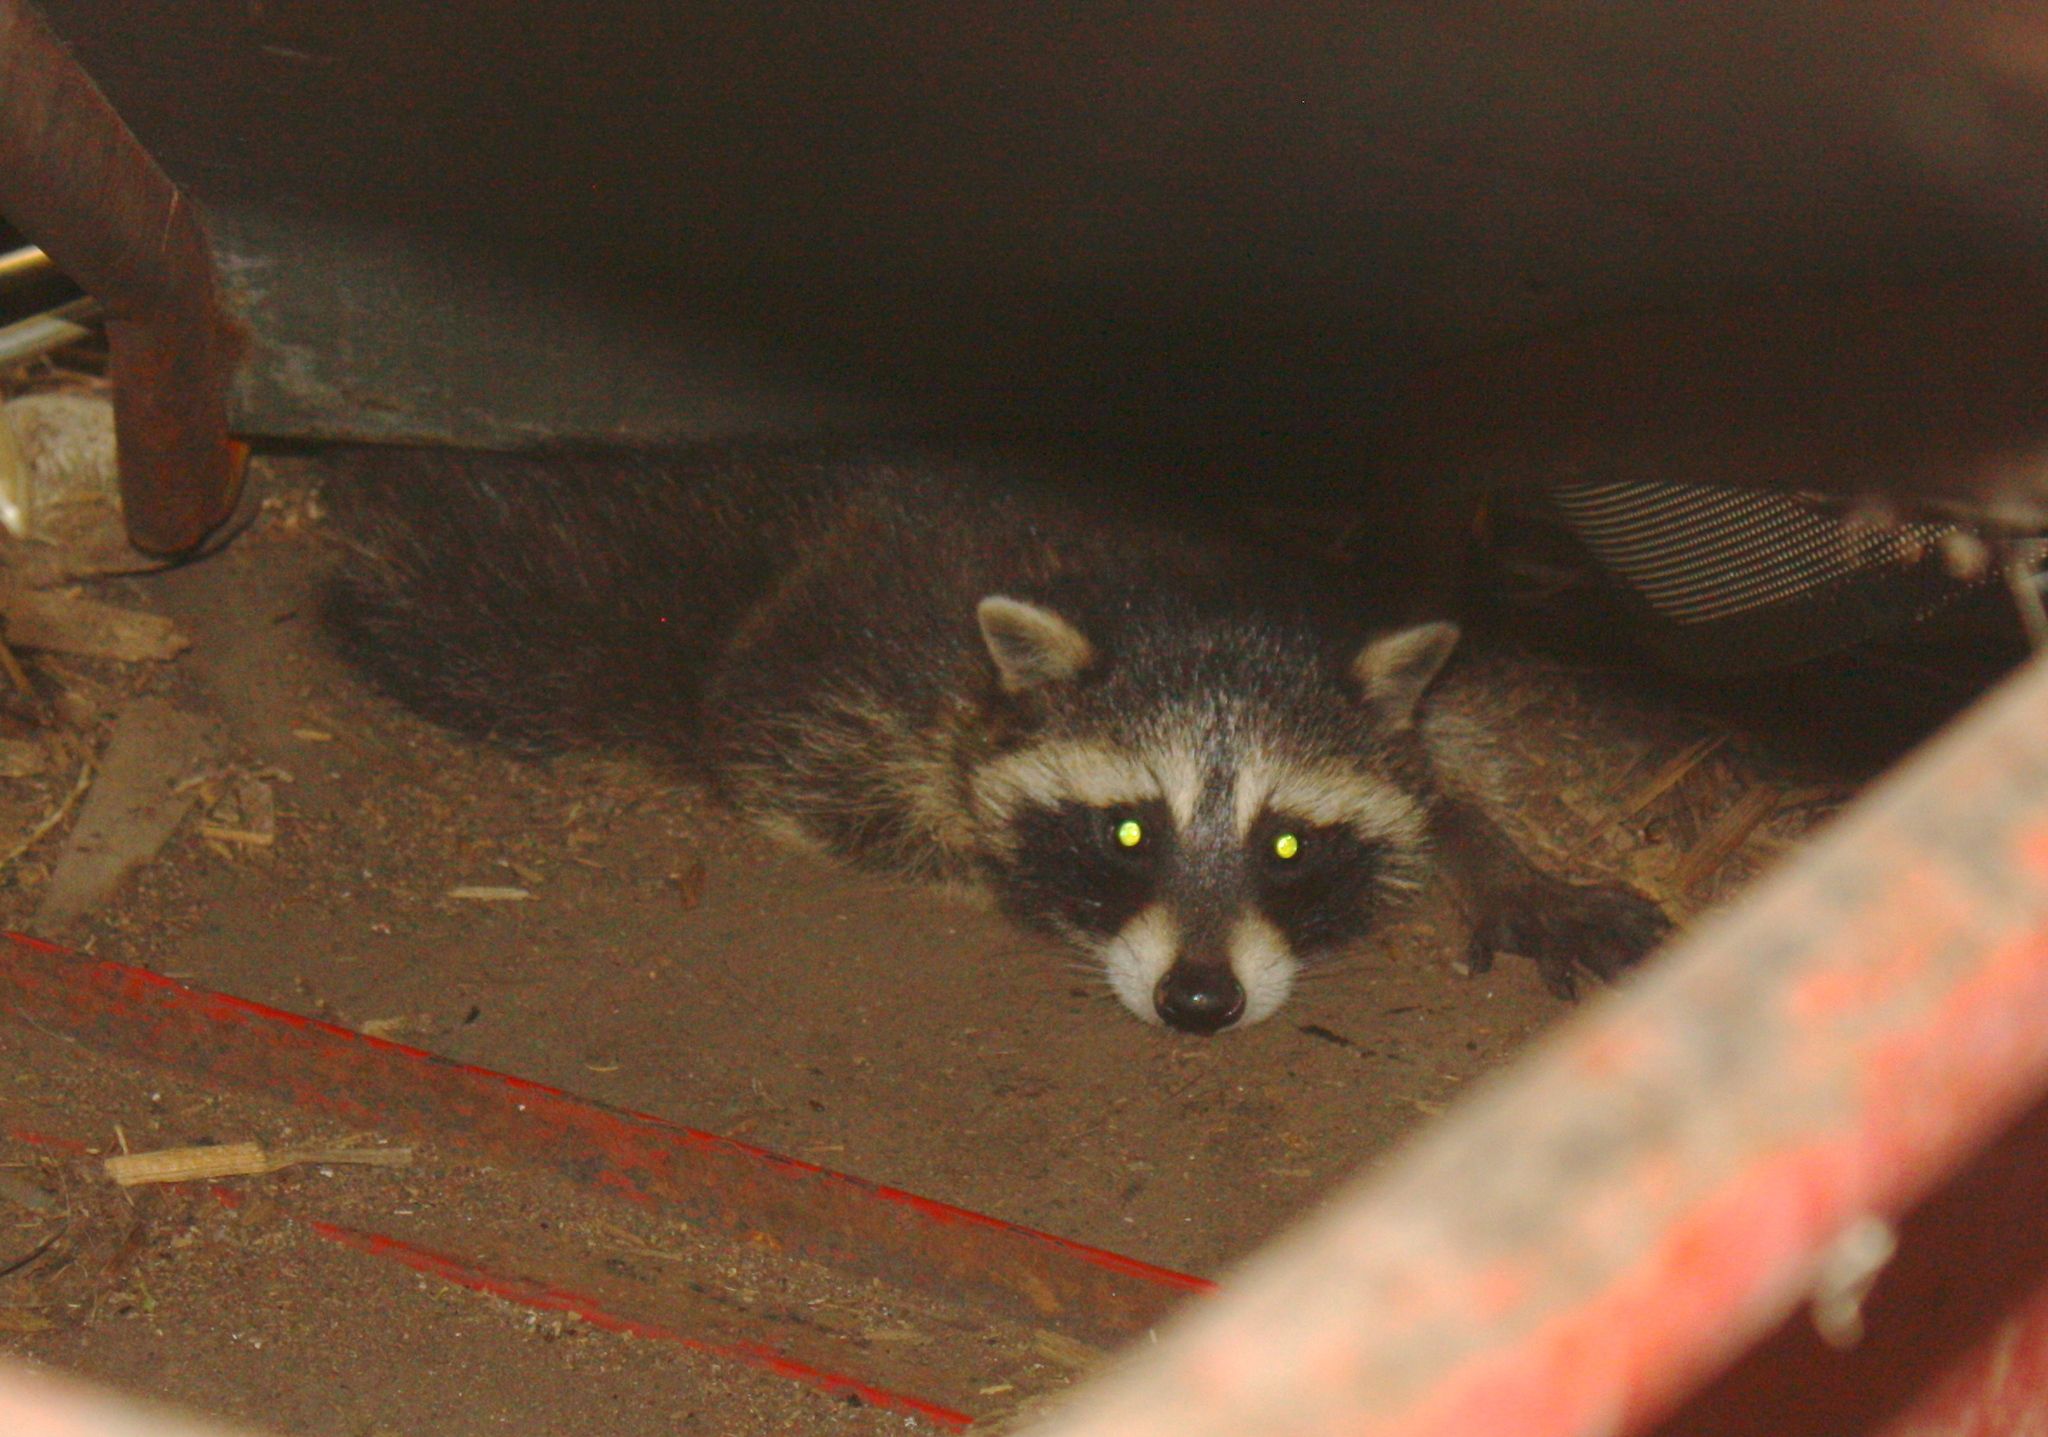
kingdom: Animalia
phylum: Chordata
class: Mammalia
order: Carnivora
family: Procyonidae
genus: Procyon
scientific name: Procyon lotor
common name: Raccoon
